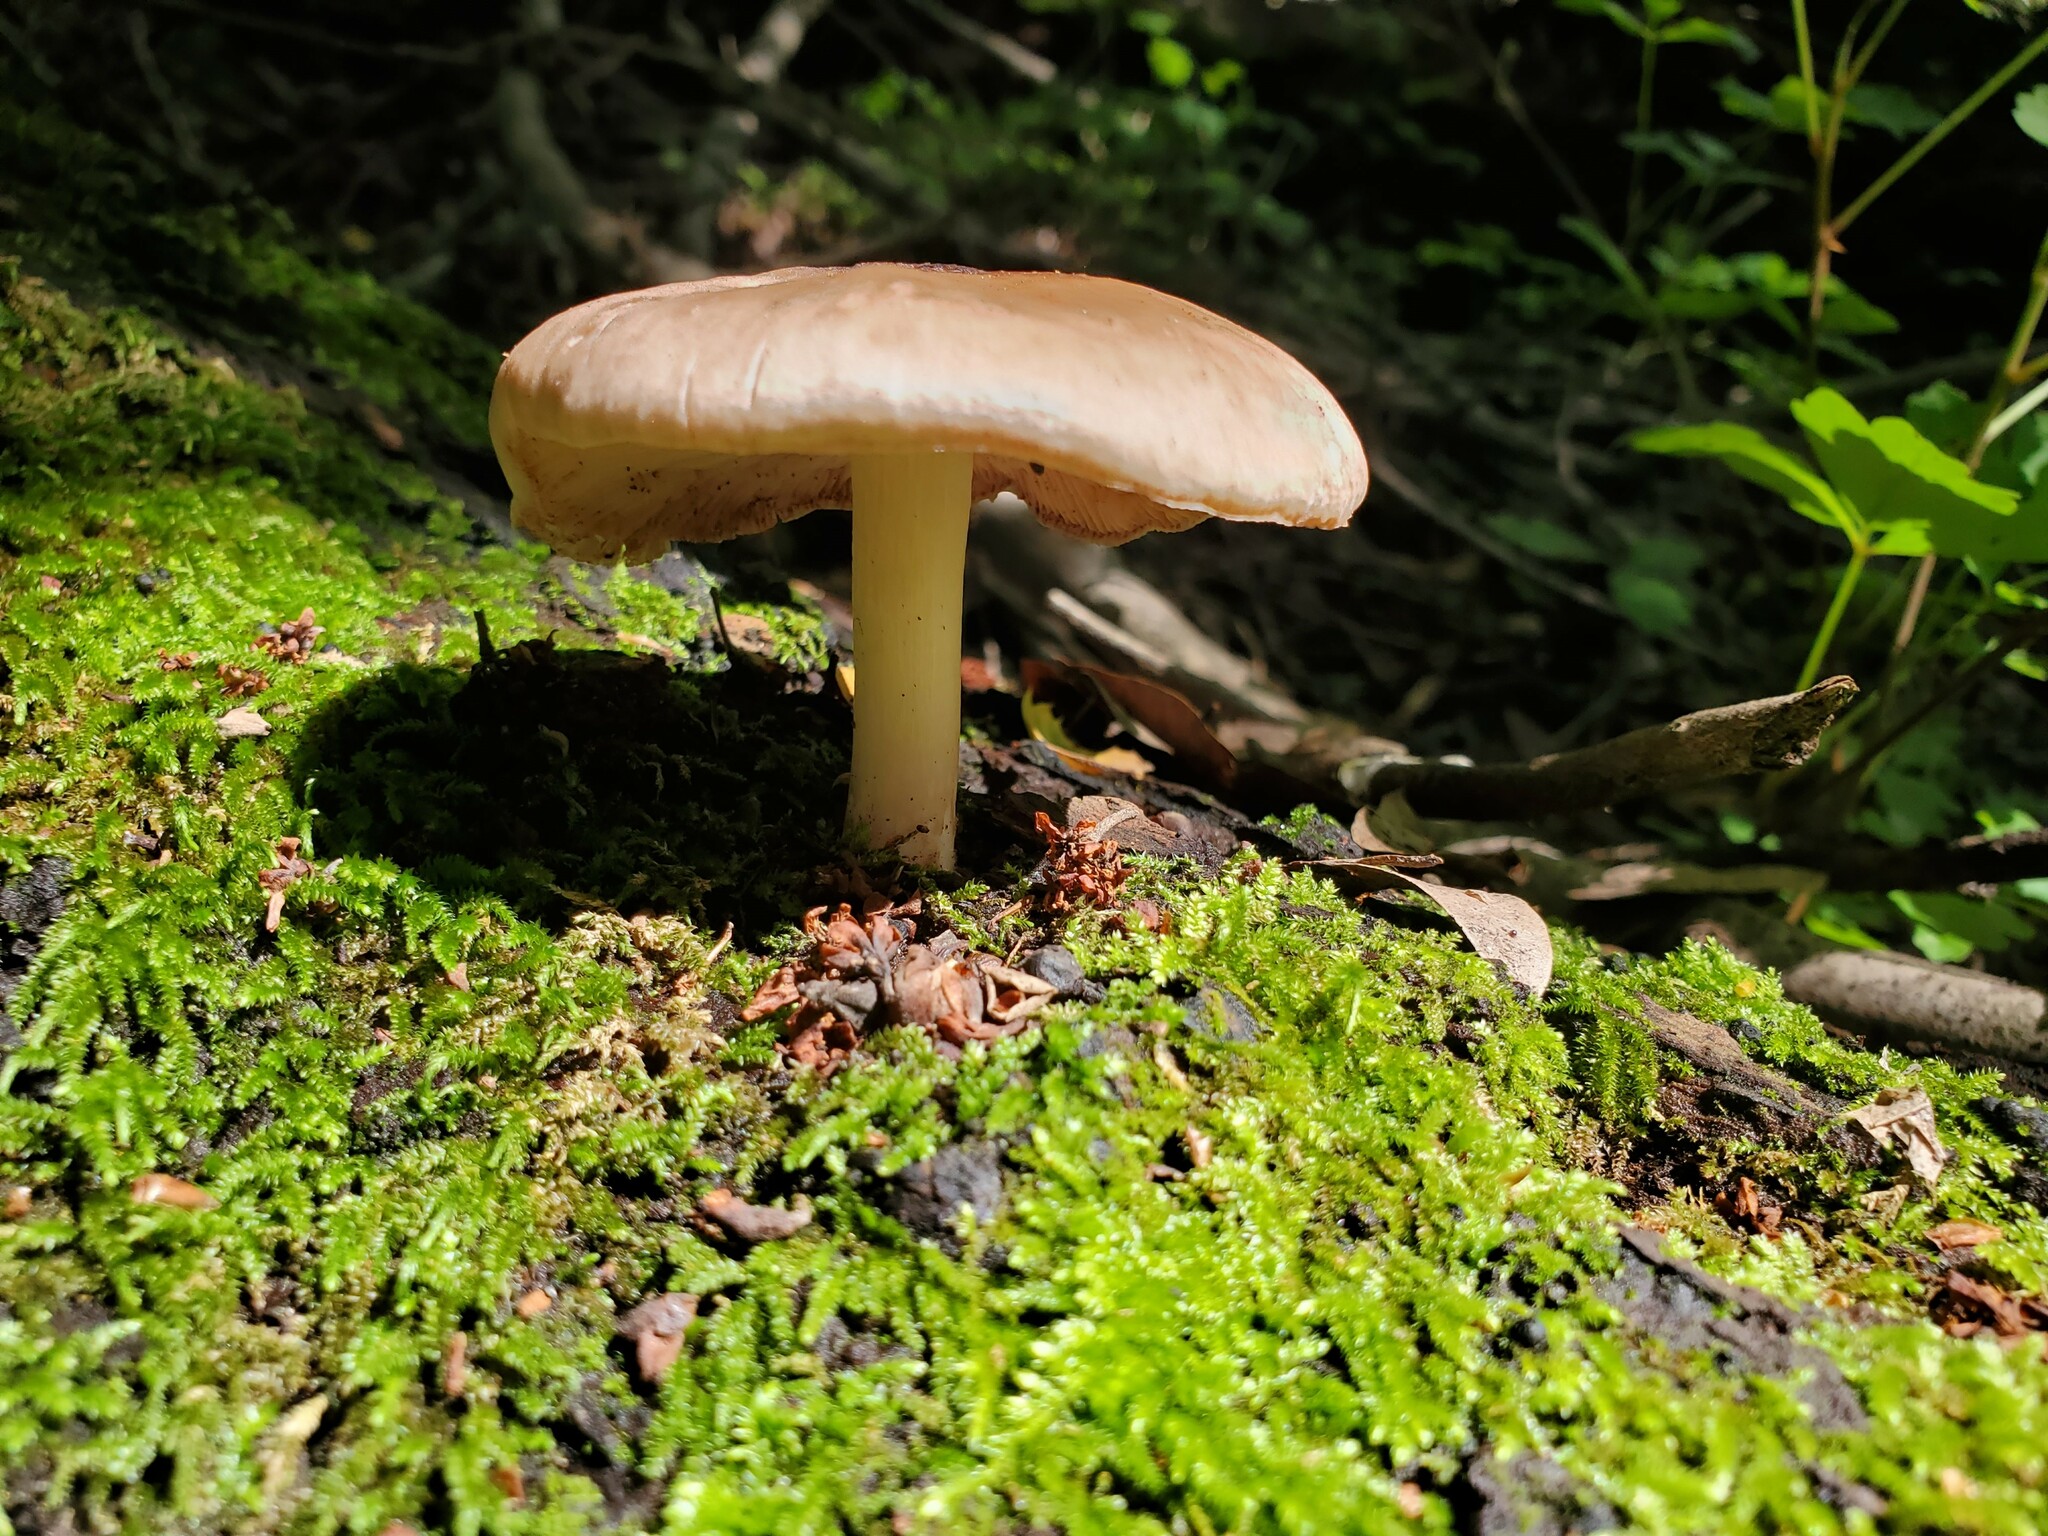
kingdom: Fungi
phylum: Basidiomycota
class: Agaricomycetes
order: Agaricales
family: Pluteaceae
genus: Pluteus
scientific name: Pluteus exilis
